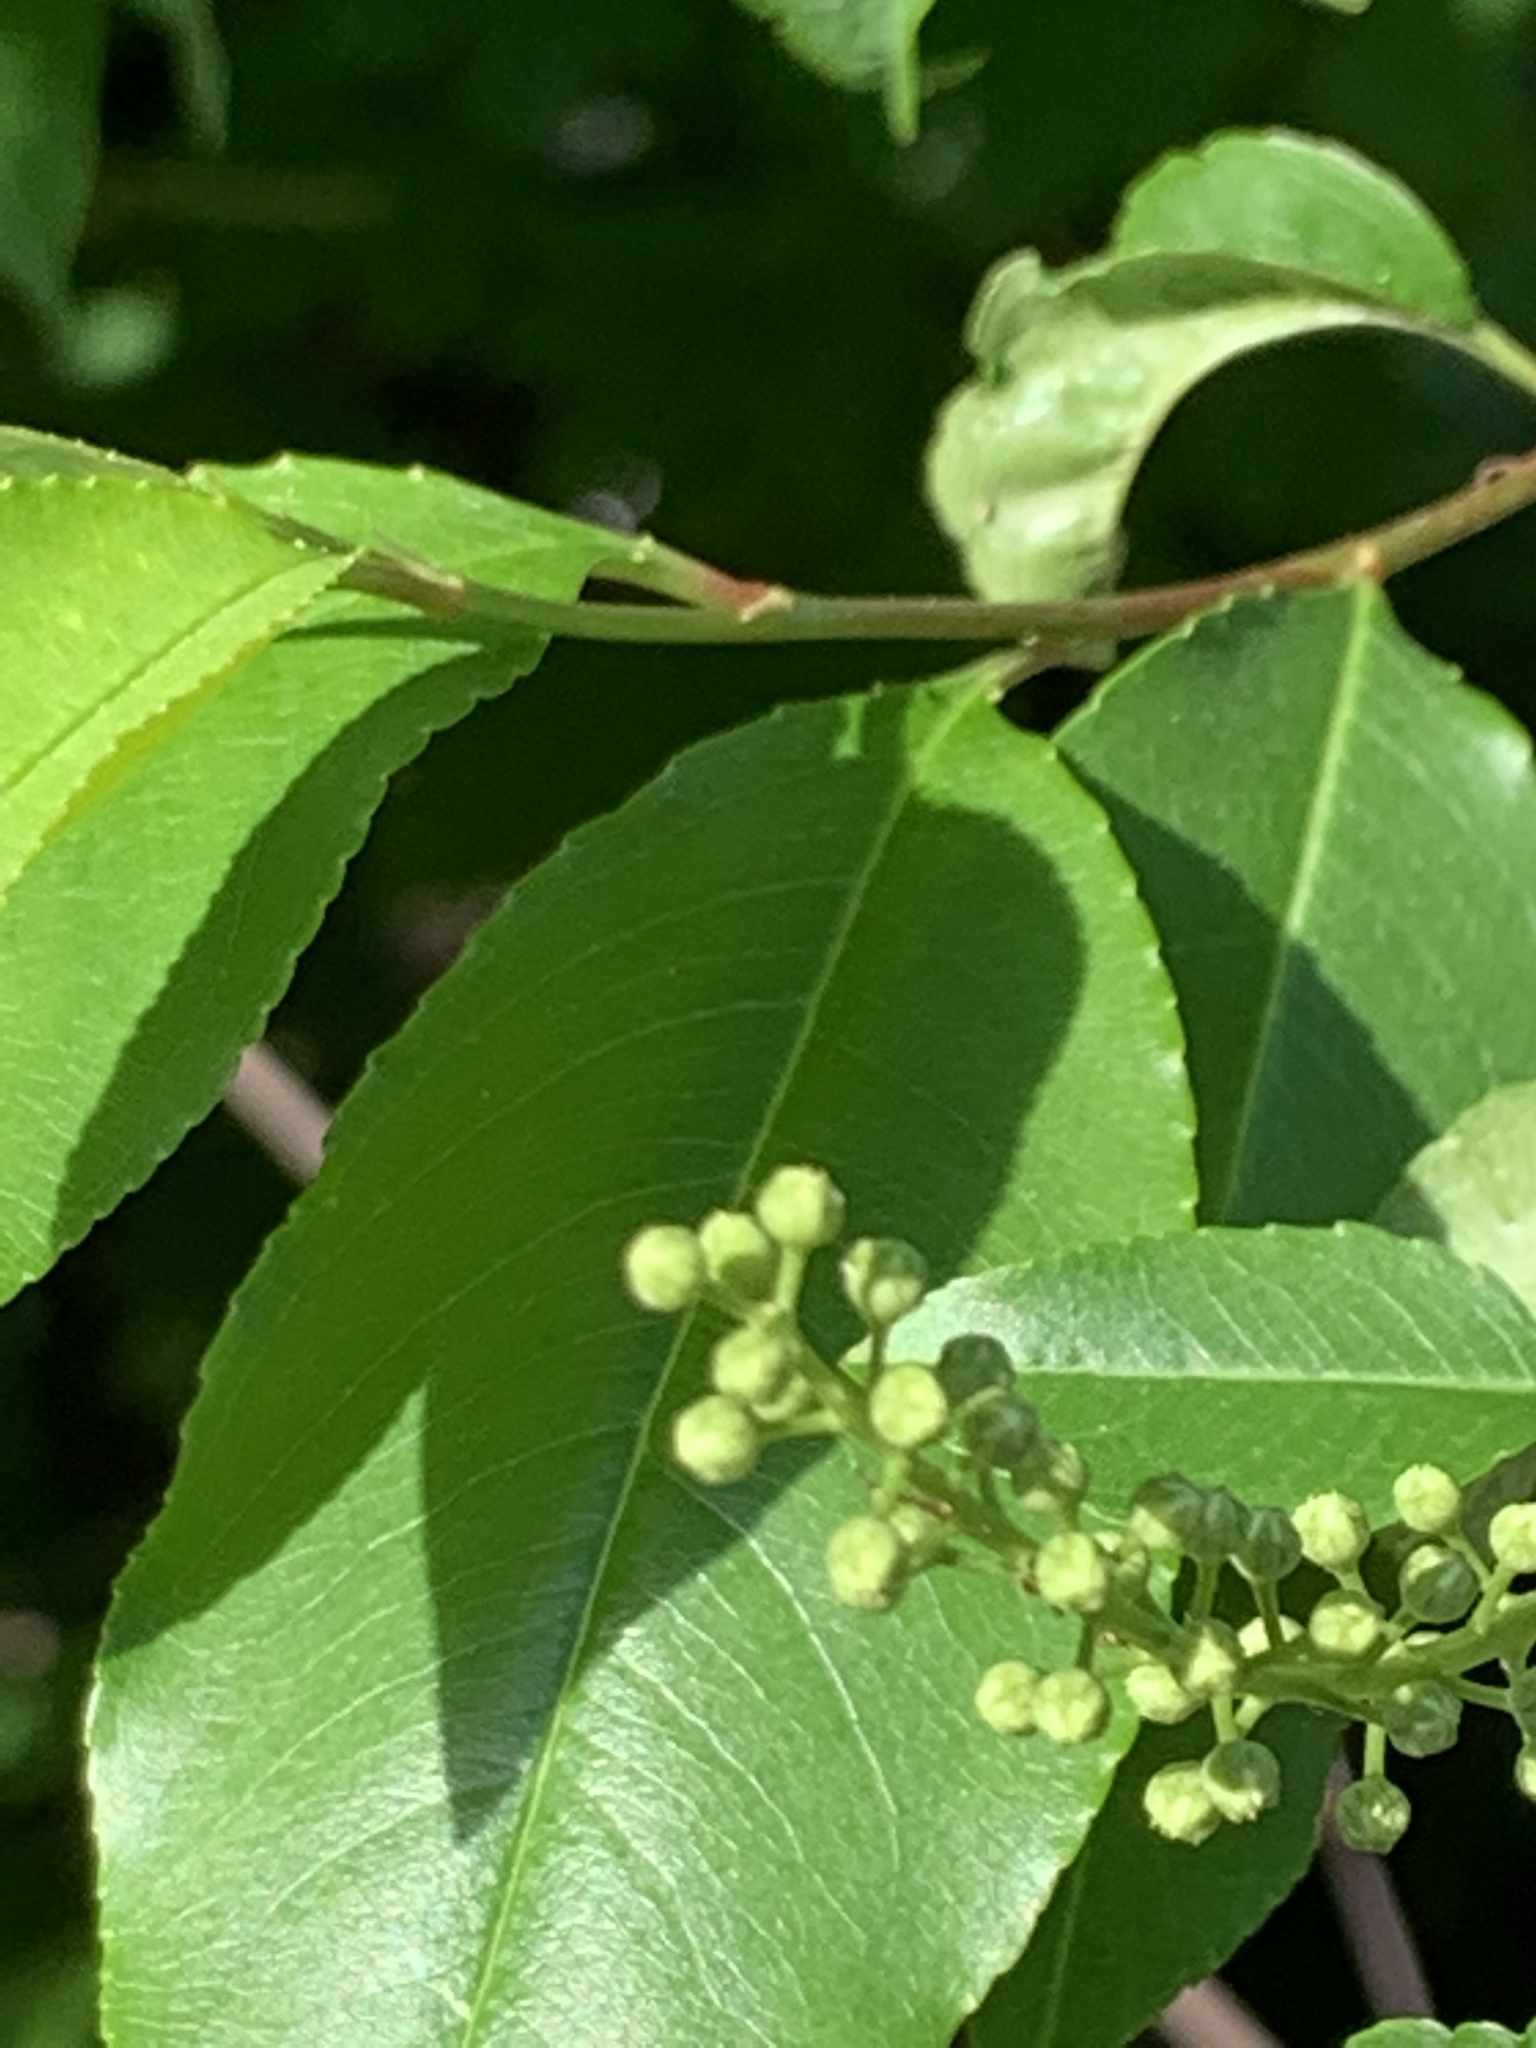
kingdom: Plantae
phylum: Tracheophyta
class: Magnoliopsida
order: Rosales
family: Rosaceae
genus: Prunus
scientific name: Prunus serotina
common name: Black cherry
